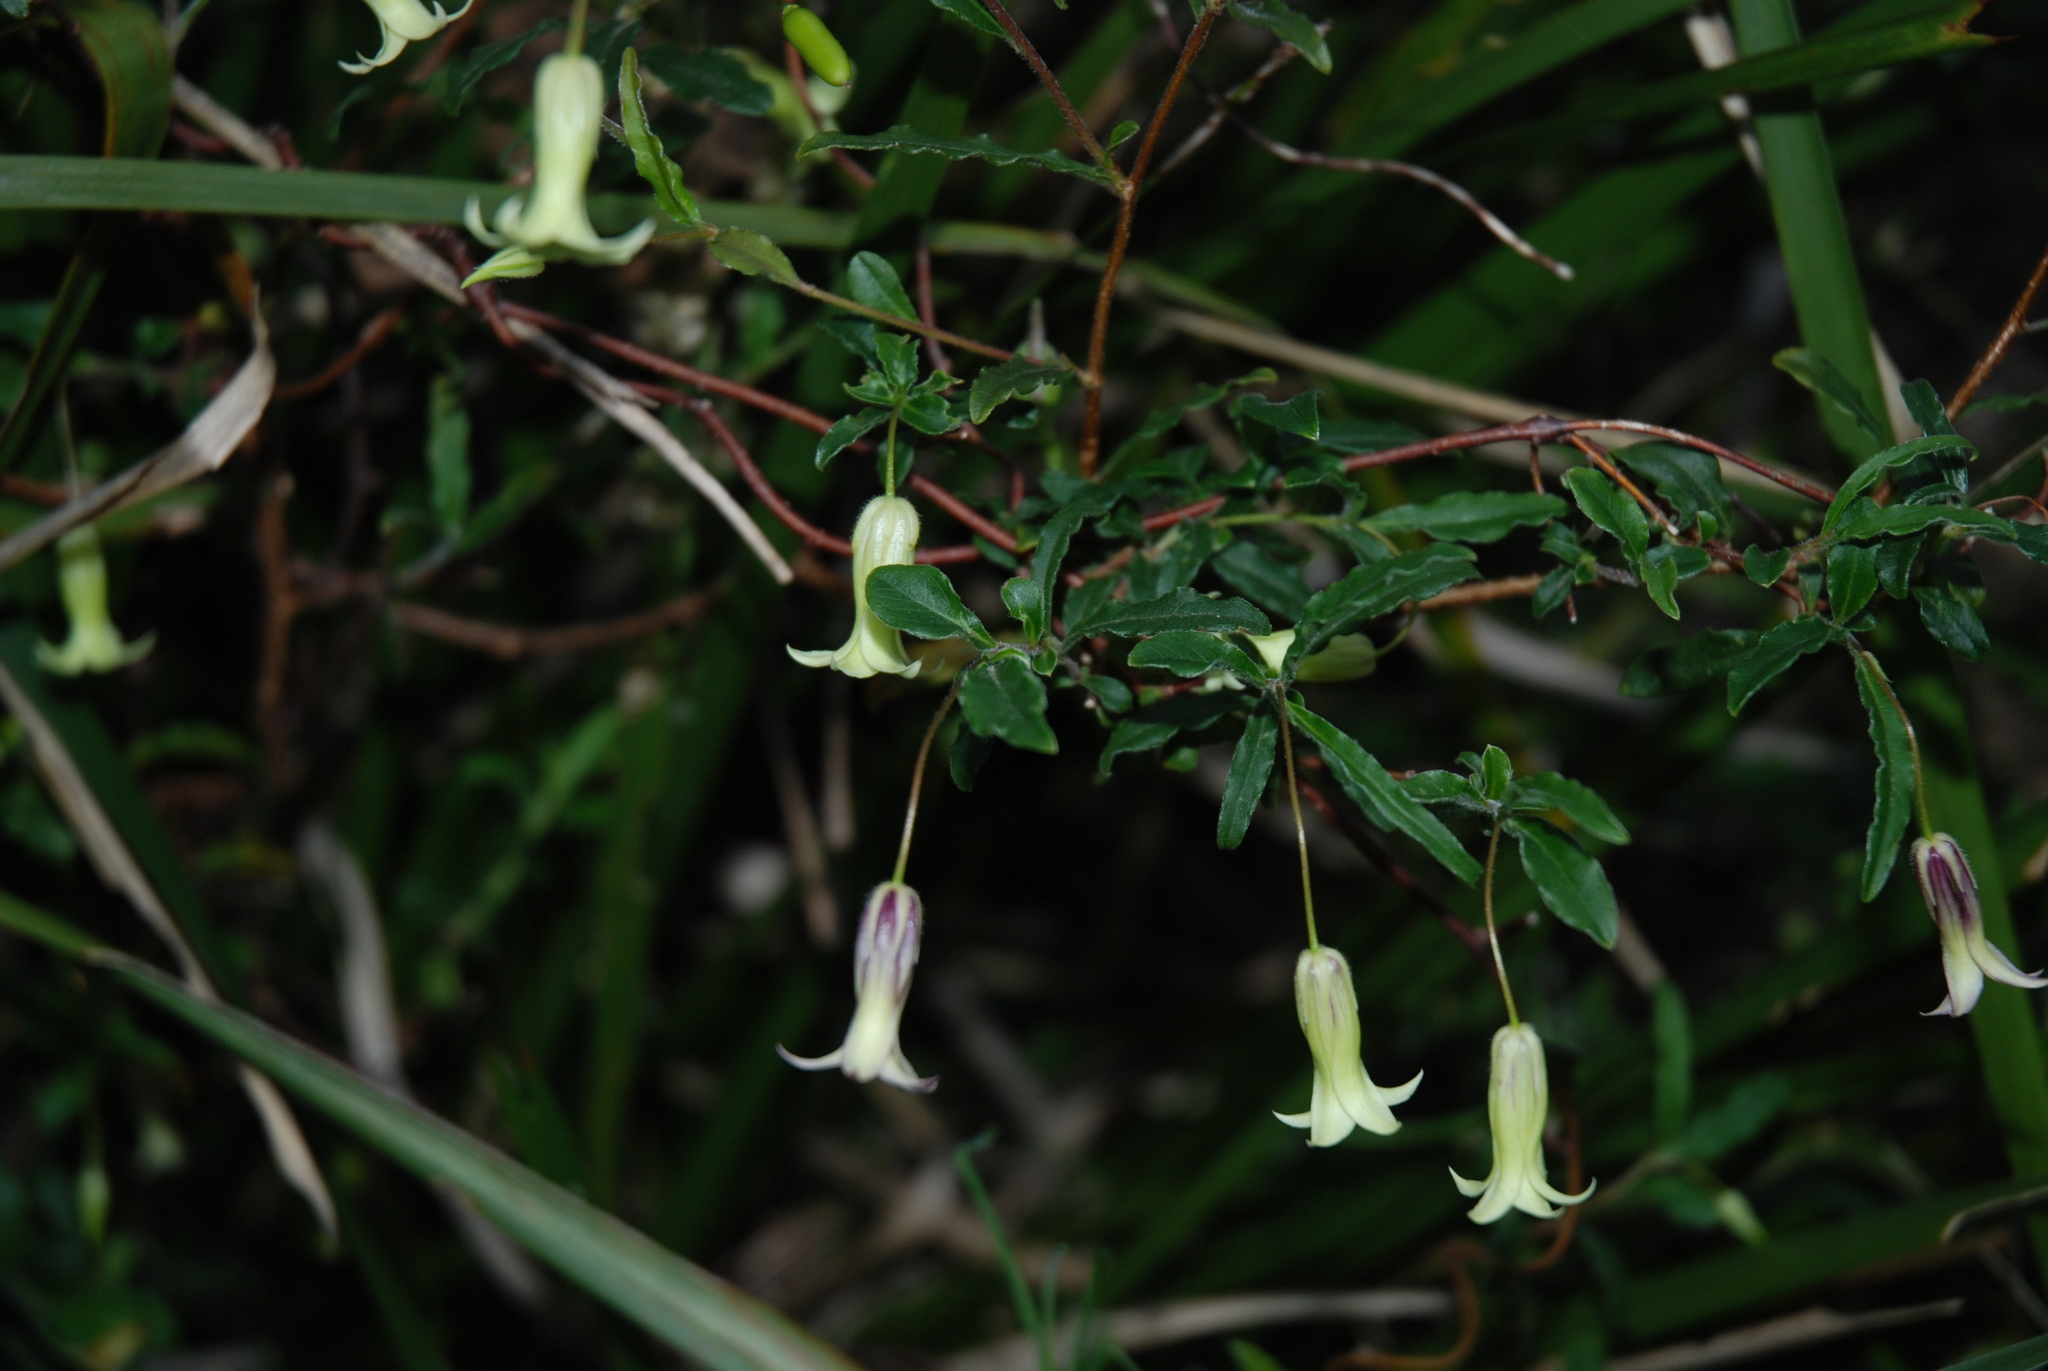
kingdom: Plantae
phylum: Tracheophyta
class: Magnoliopsida
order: Apiales
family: Pittosporaceae
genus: Billardiera
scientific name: Billardiera mutabilis
